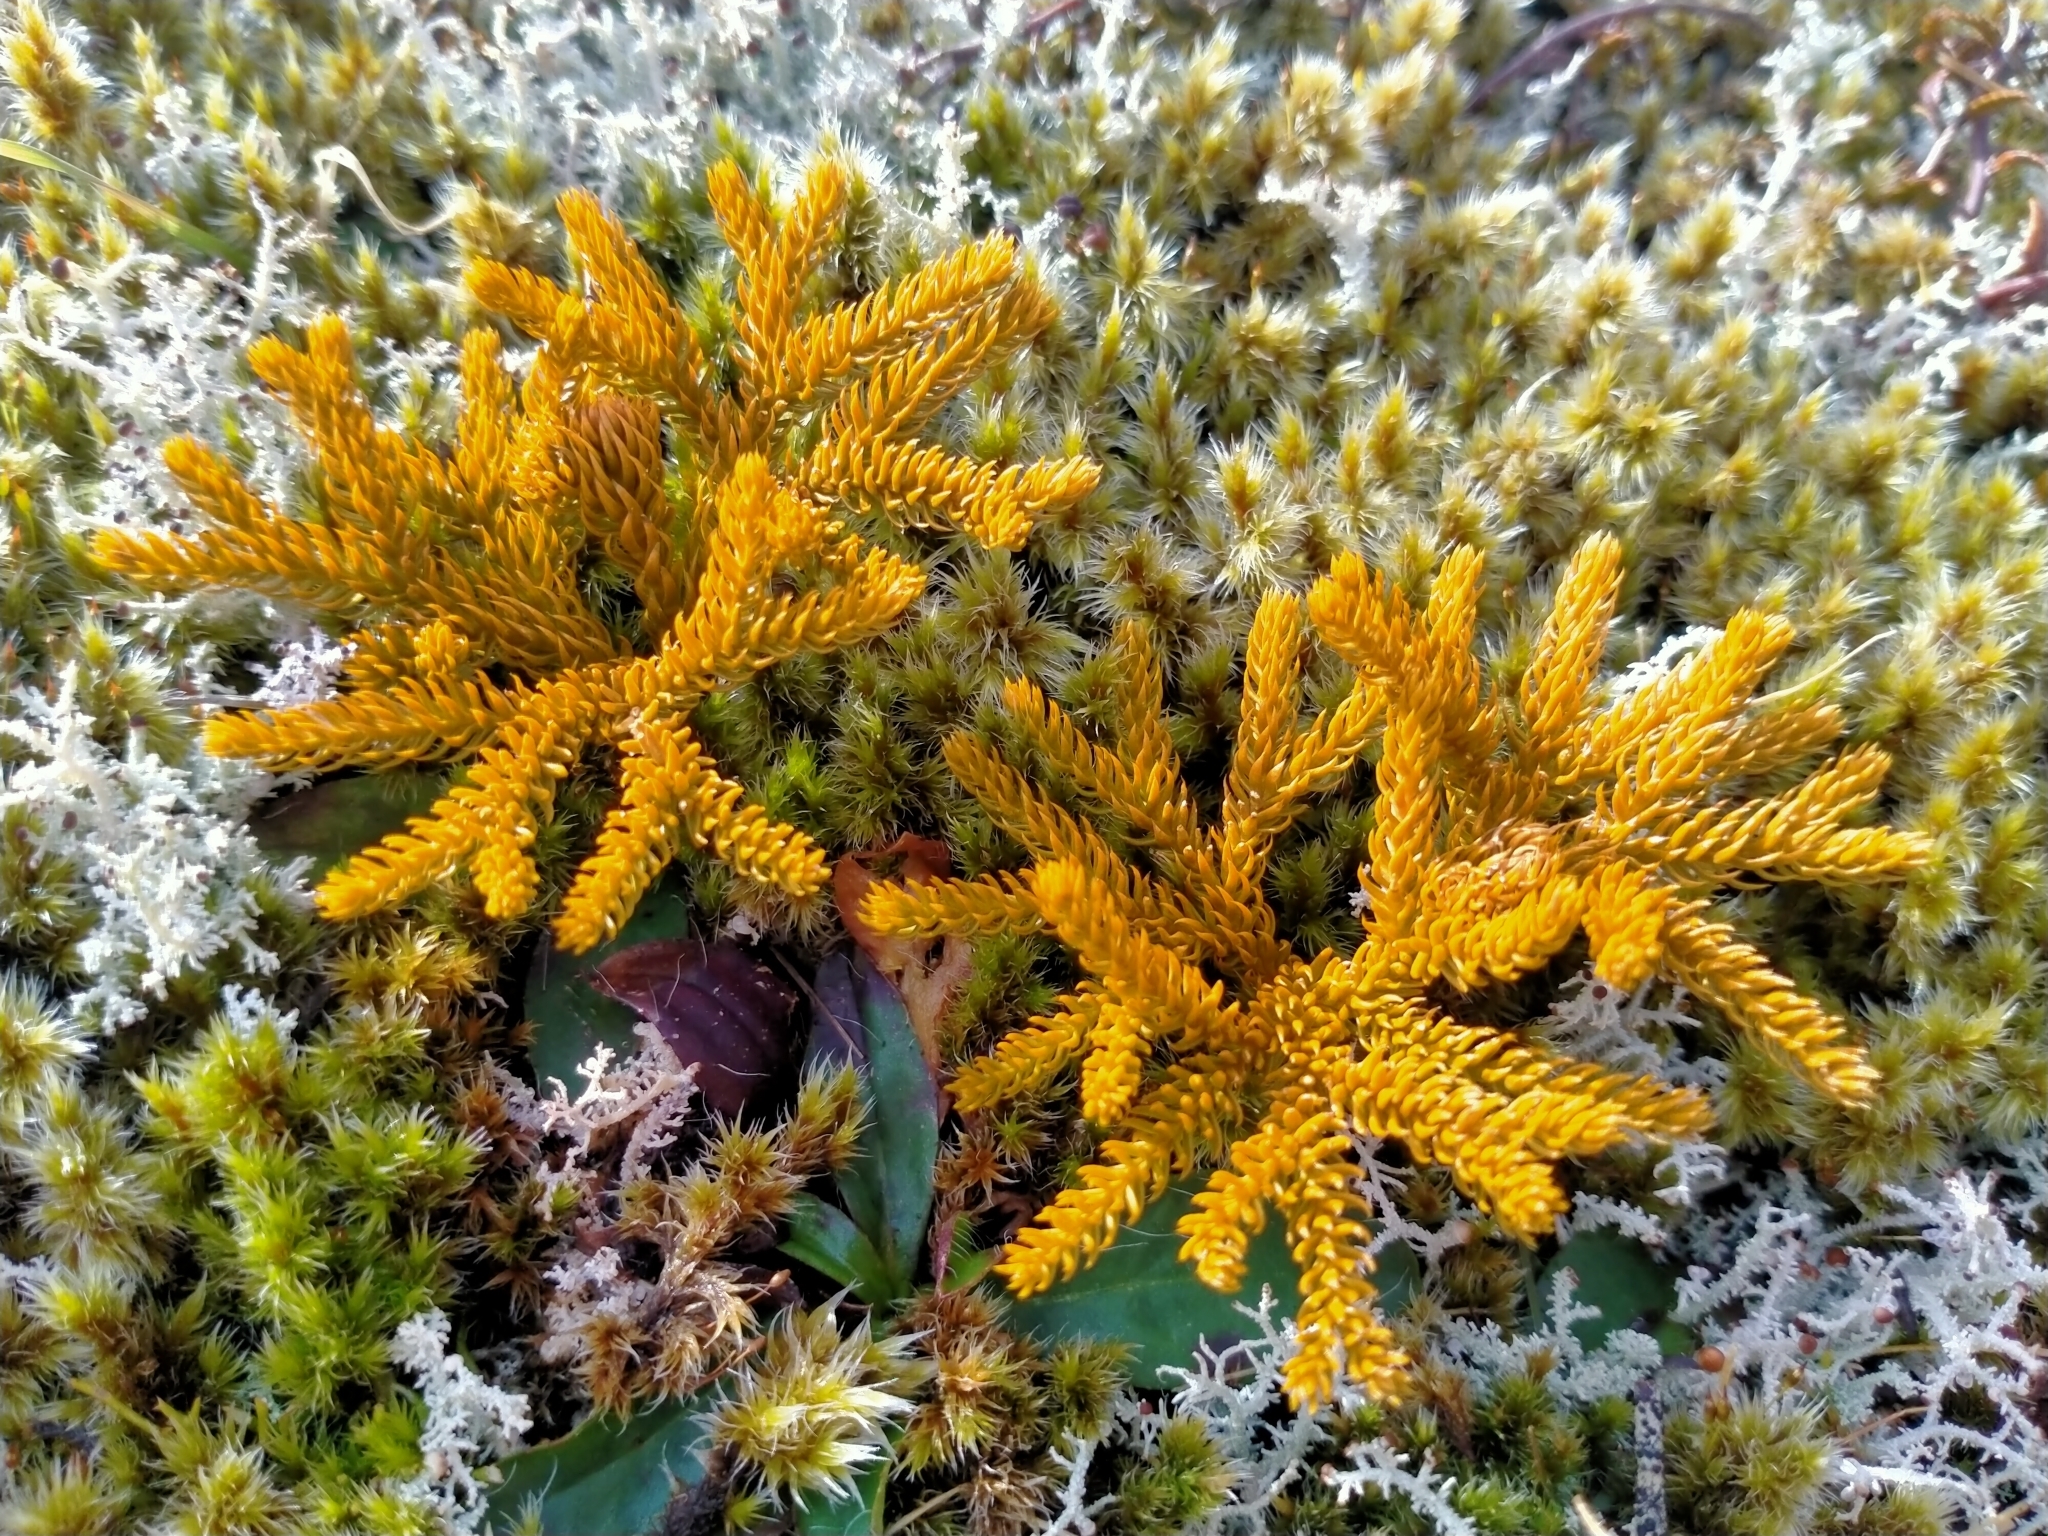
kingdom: Plantae
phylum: Tracheophyta
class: Lycopodiopsida
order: Lycopodiales
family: Lycopodiaceae
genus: Austrolycopodium
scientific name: Austrolycopodium fastigiatum
